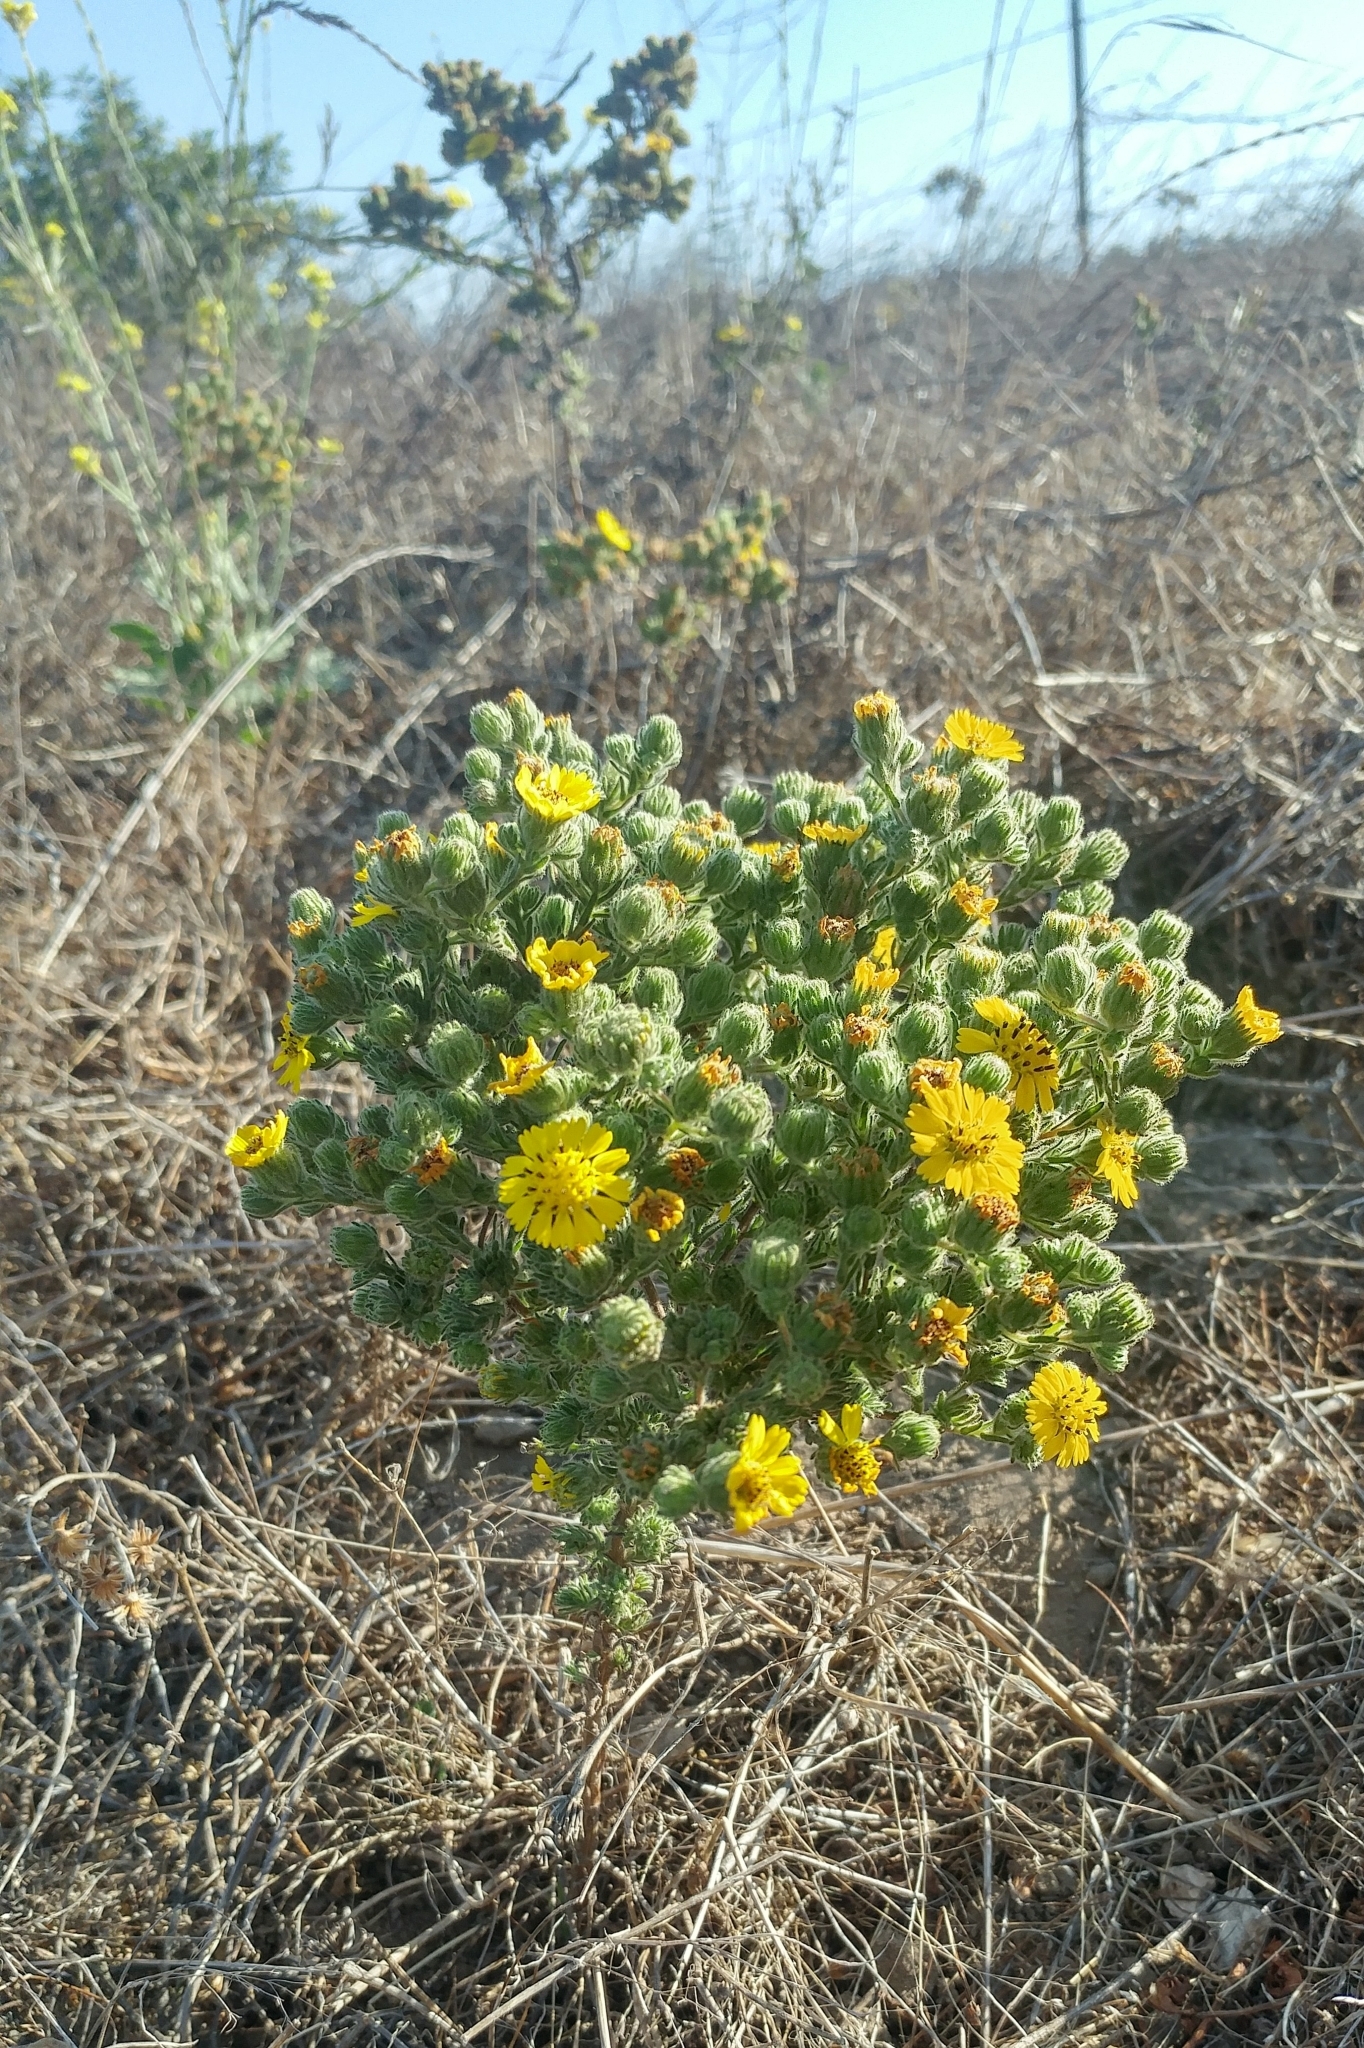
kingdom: Plantae
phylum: Tracheophyta
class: Magnoliopsida
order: Asterales
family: Asteraceae
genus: Deinandra
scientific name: Deinandra increscens
